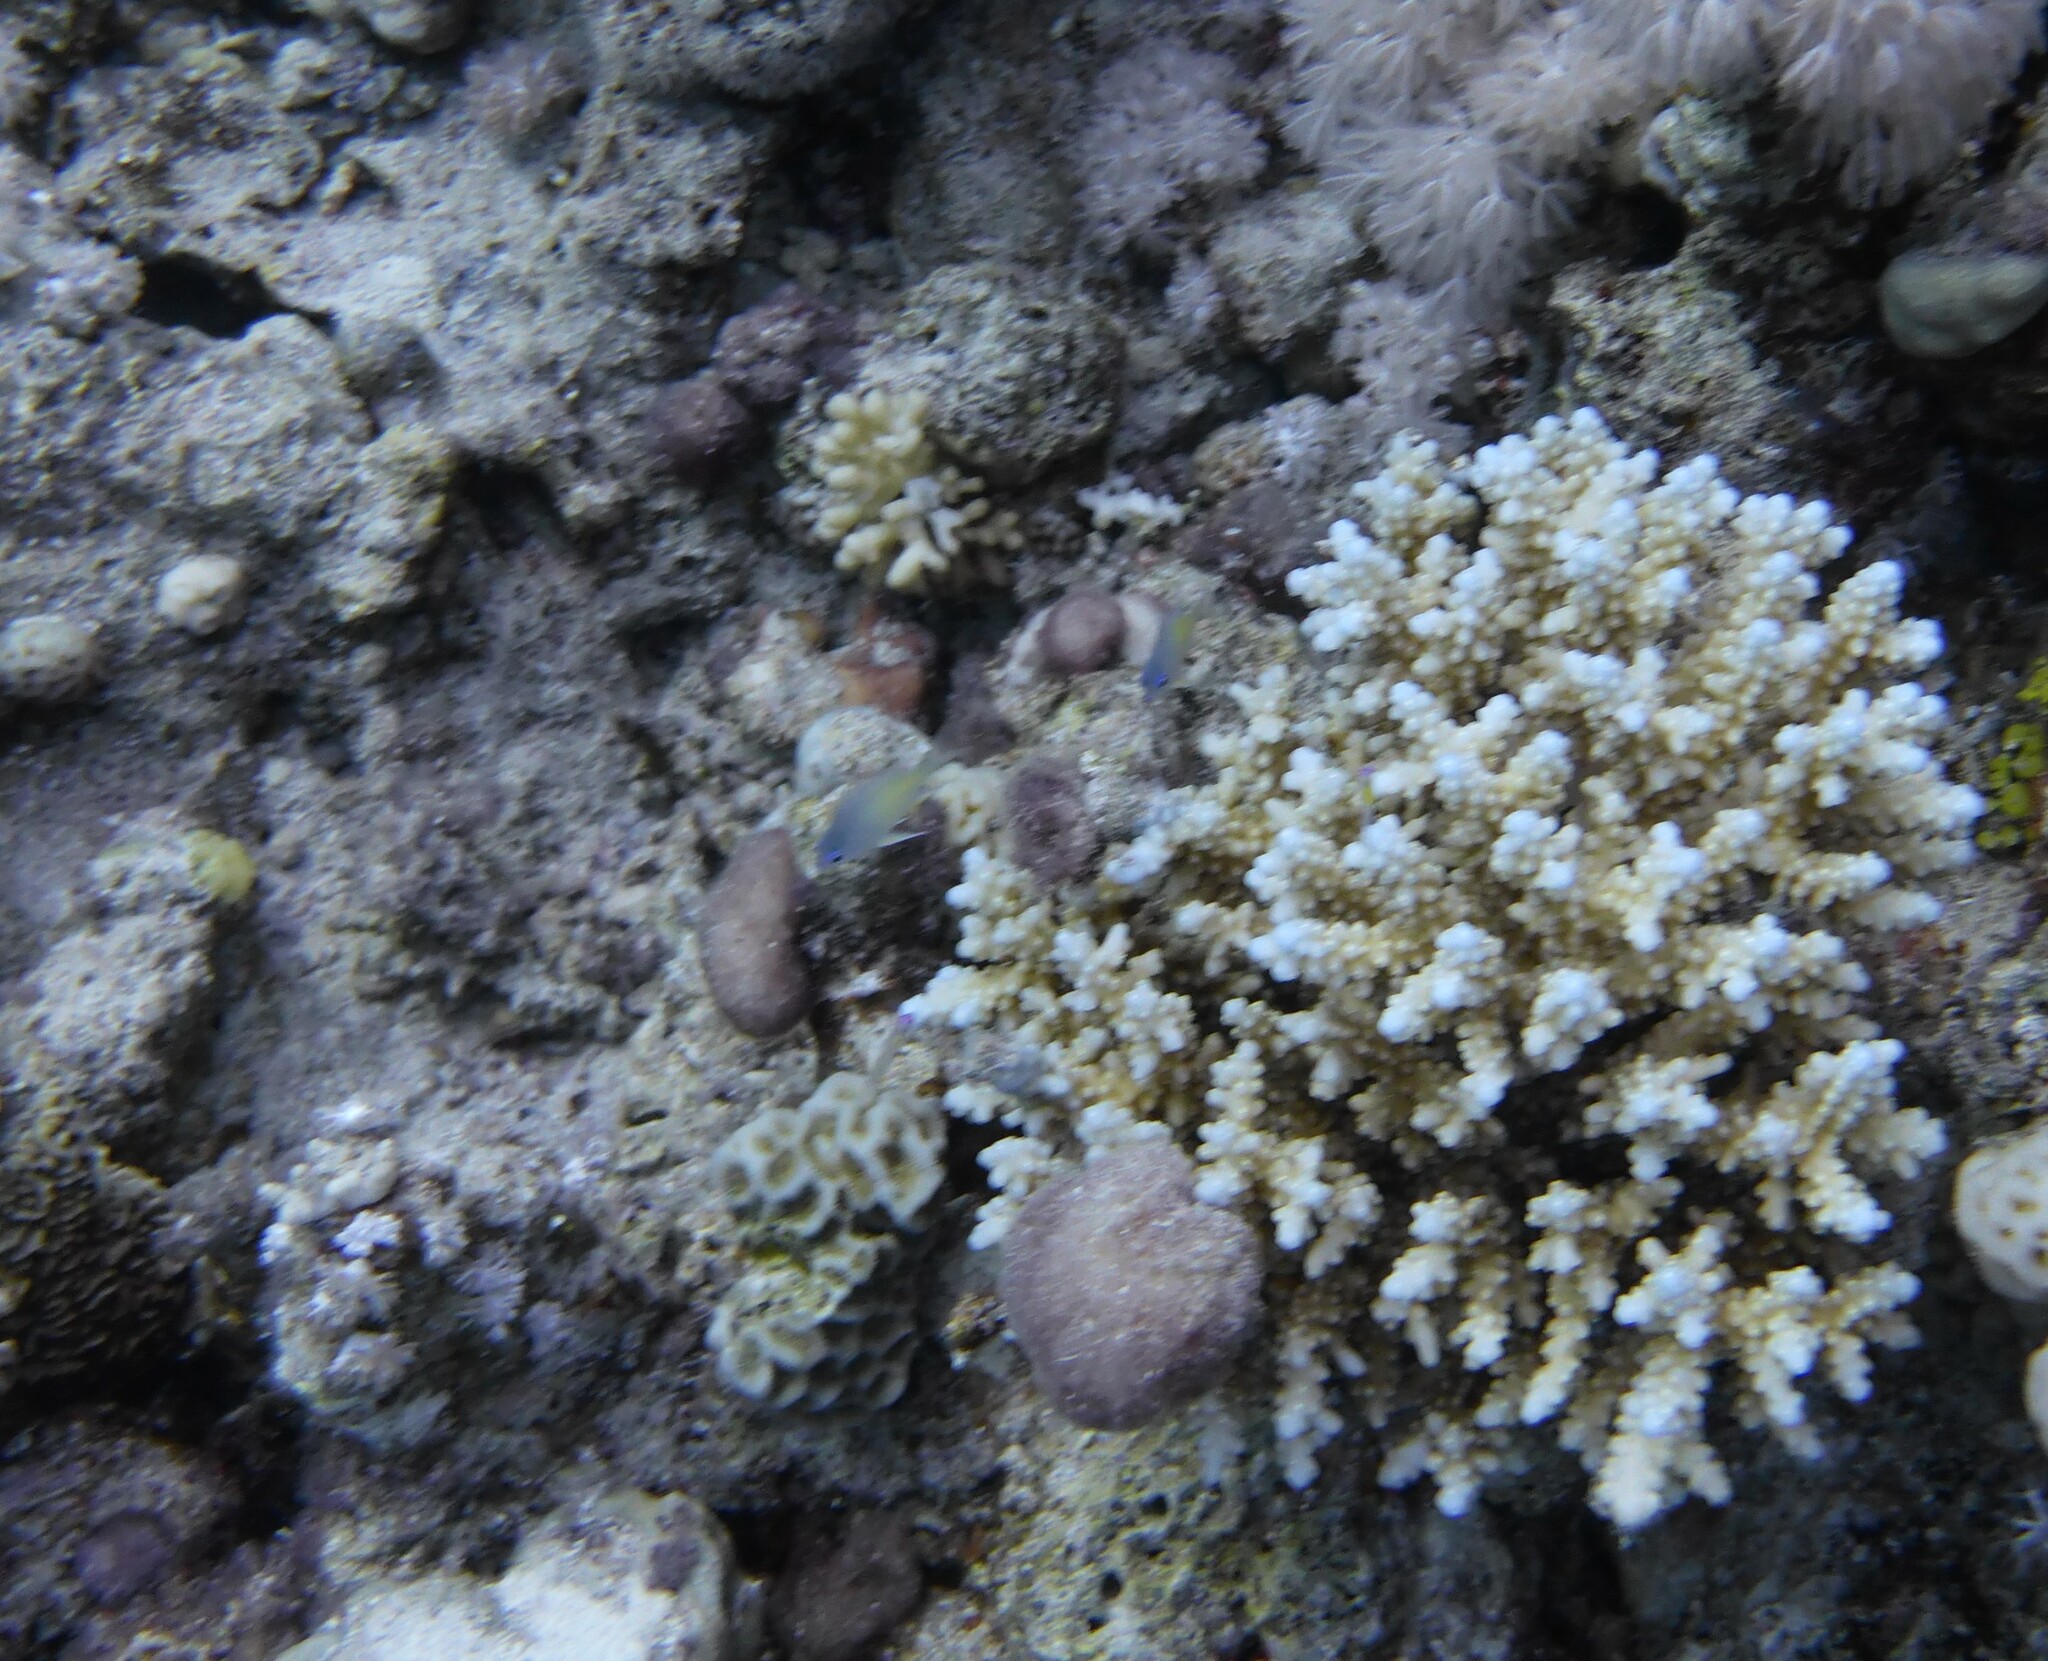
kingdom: Animalia
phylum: Chordata
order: Perciformes
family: Pomacentridae
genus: Amblyglyphidodon
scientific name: Amblyglyphidodon flavilatus
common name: Yellowfin damsel
